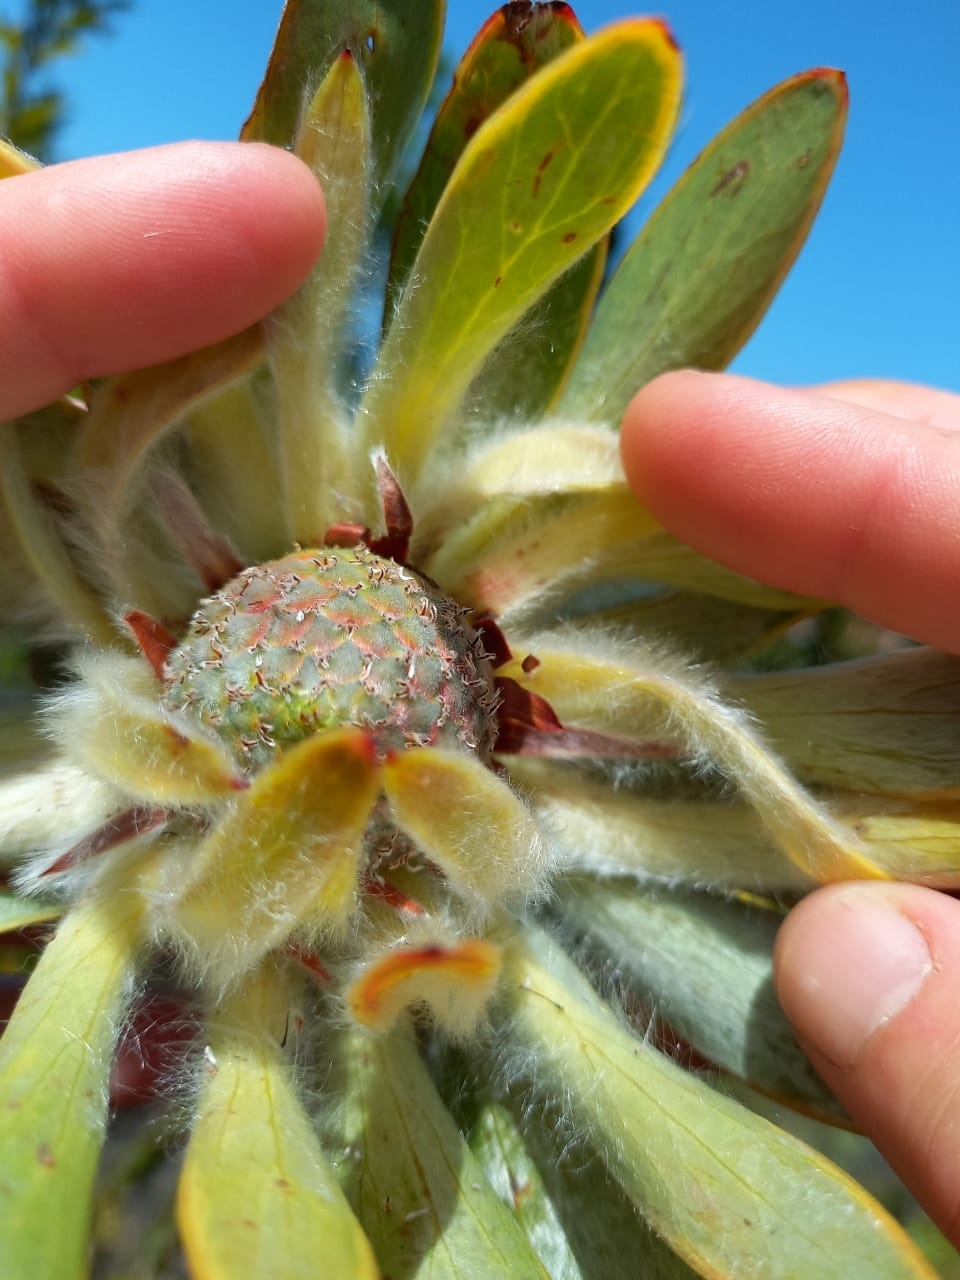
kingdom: Plantae
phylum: Tracheophyta
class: Magnoliopsida
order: Proteales
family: Proteaceae
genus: Leucadendron
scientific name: Leucadendron nervosum
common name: Silky-ruff conebush
